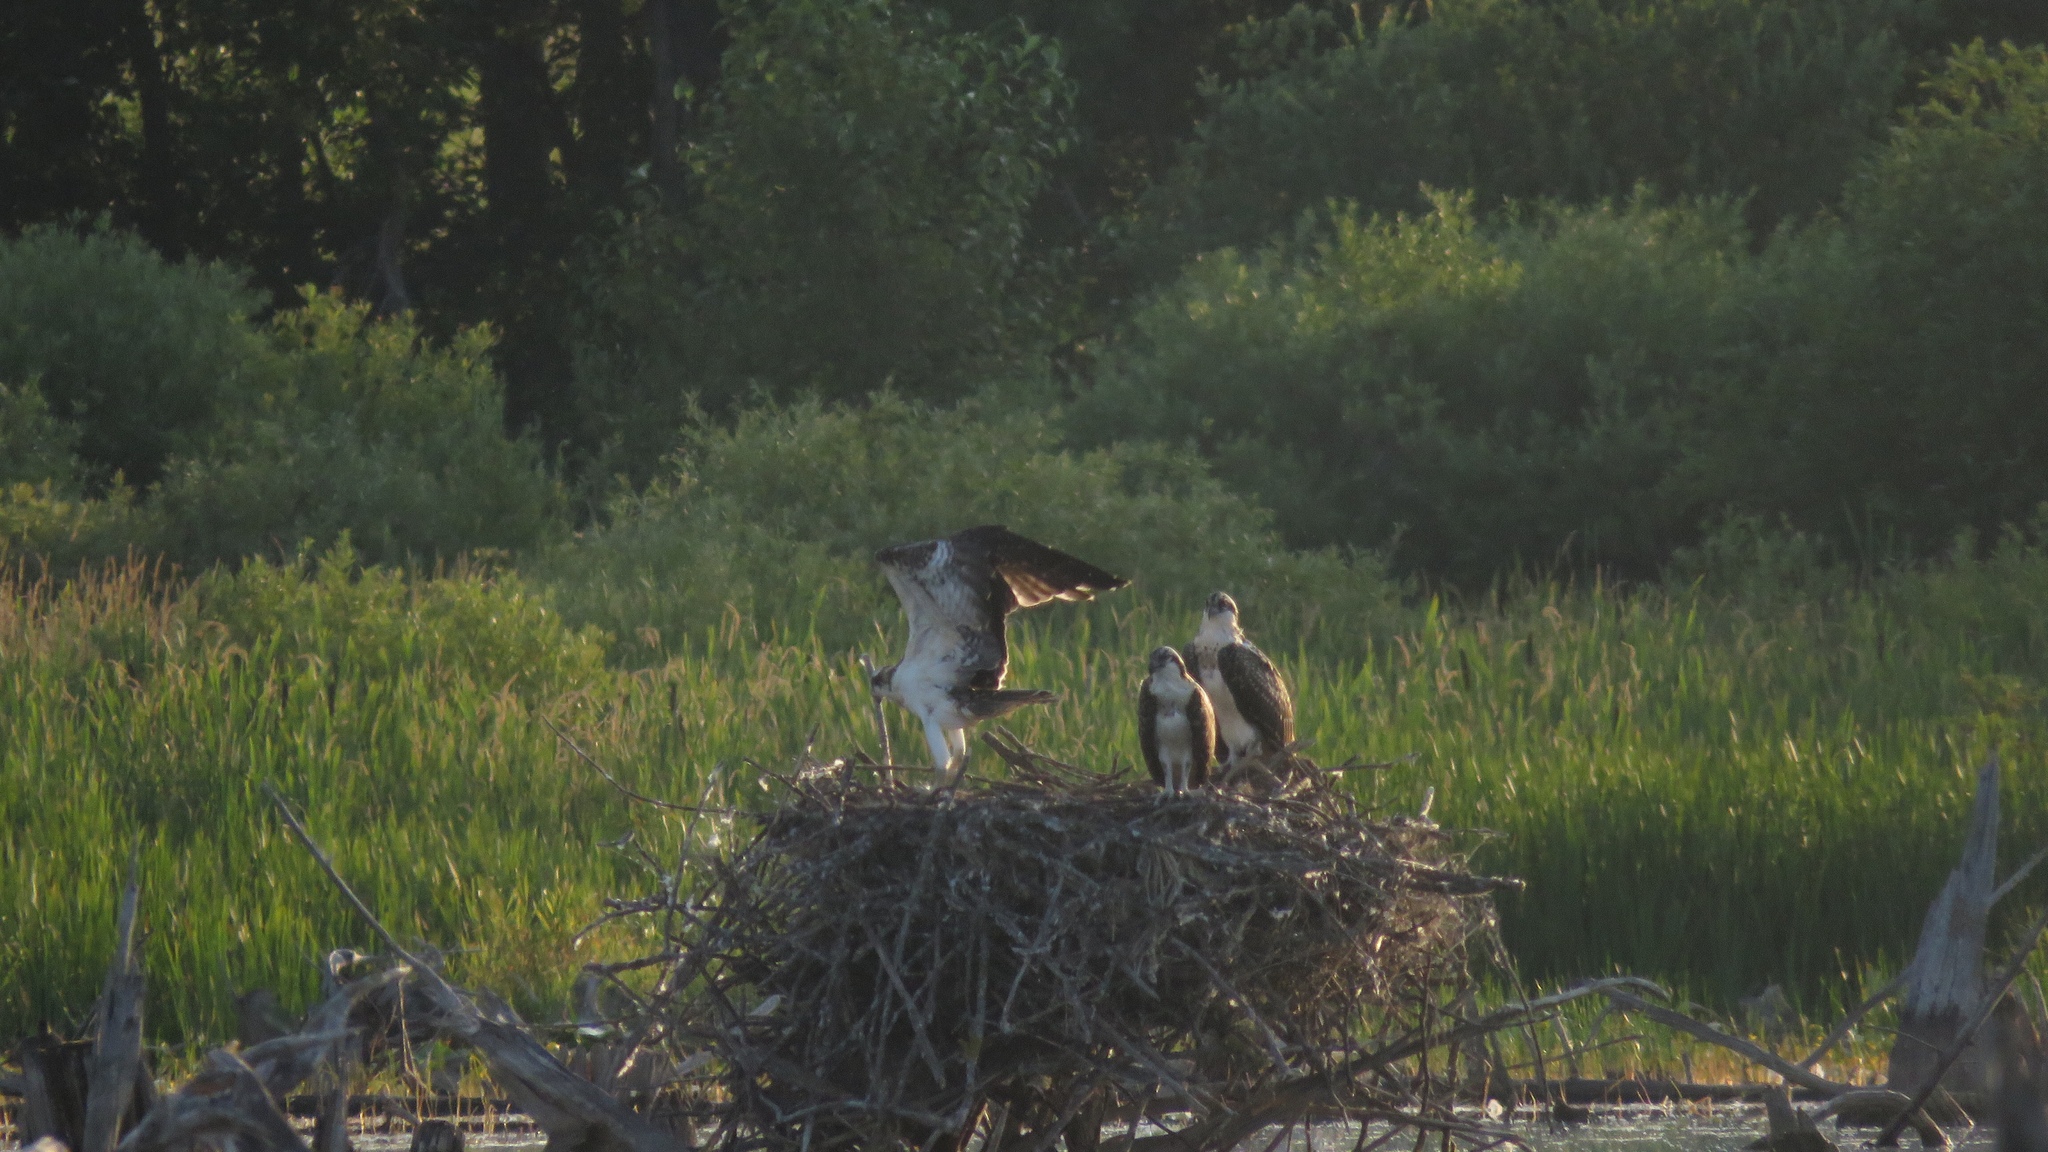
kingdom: Animalia
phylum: Chordata
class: Aves
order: Accipitriformes
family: Pandionidae
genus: Pandion
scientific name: Pandion haliaetus
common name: Osprey
